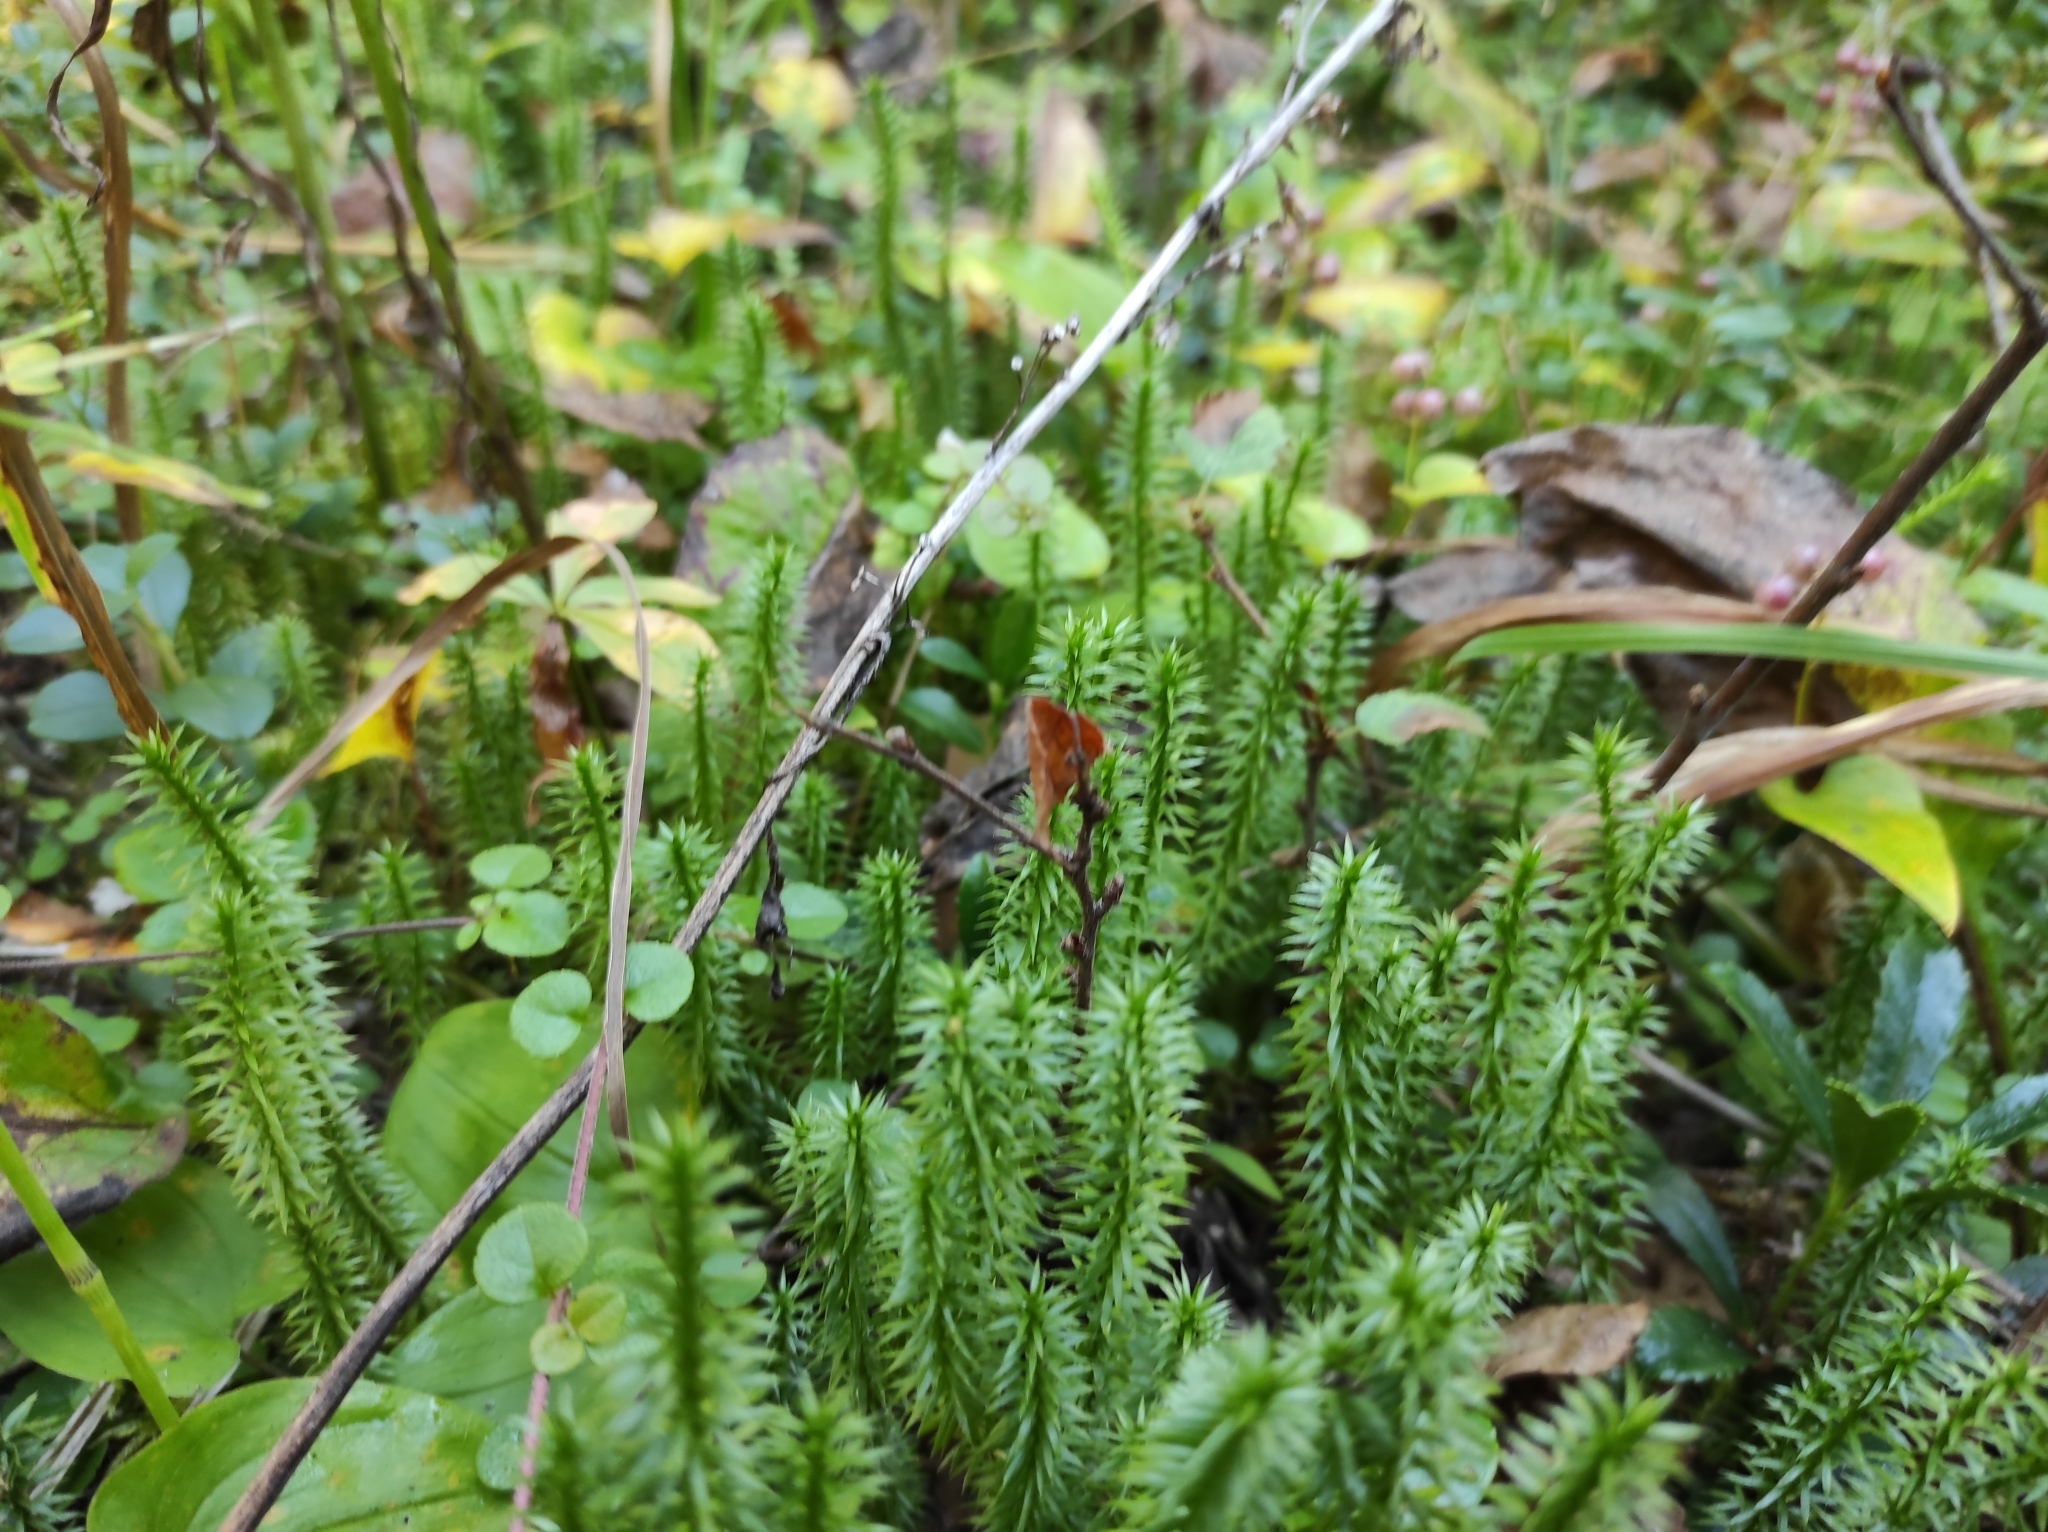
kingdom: Plantae
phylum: Tracheophyta
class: Lycopodiopsida
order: Lycopodiales
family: Lycopodiaceae
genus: Spinulum
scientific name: Spinulum annotinum
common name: Interrupted club-moss
